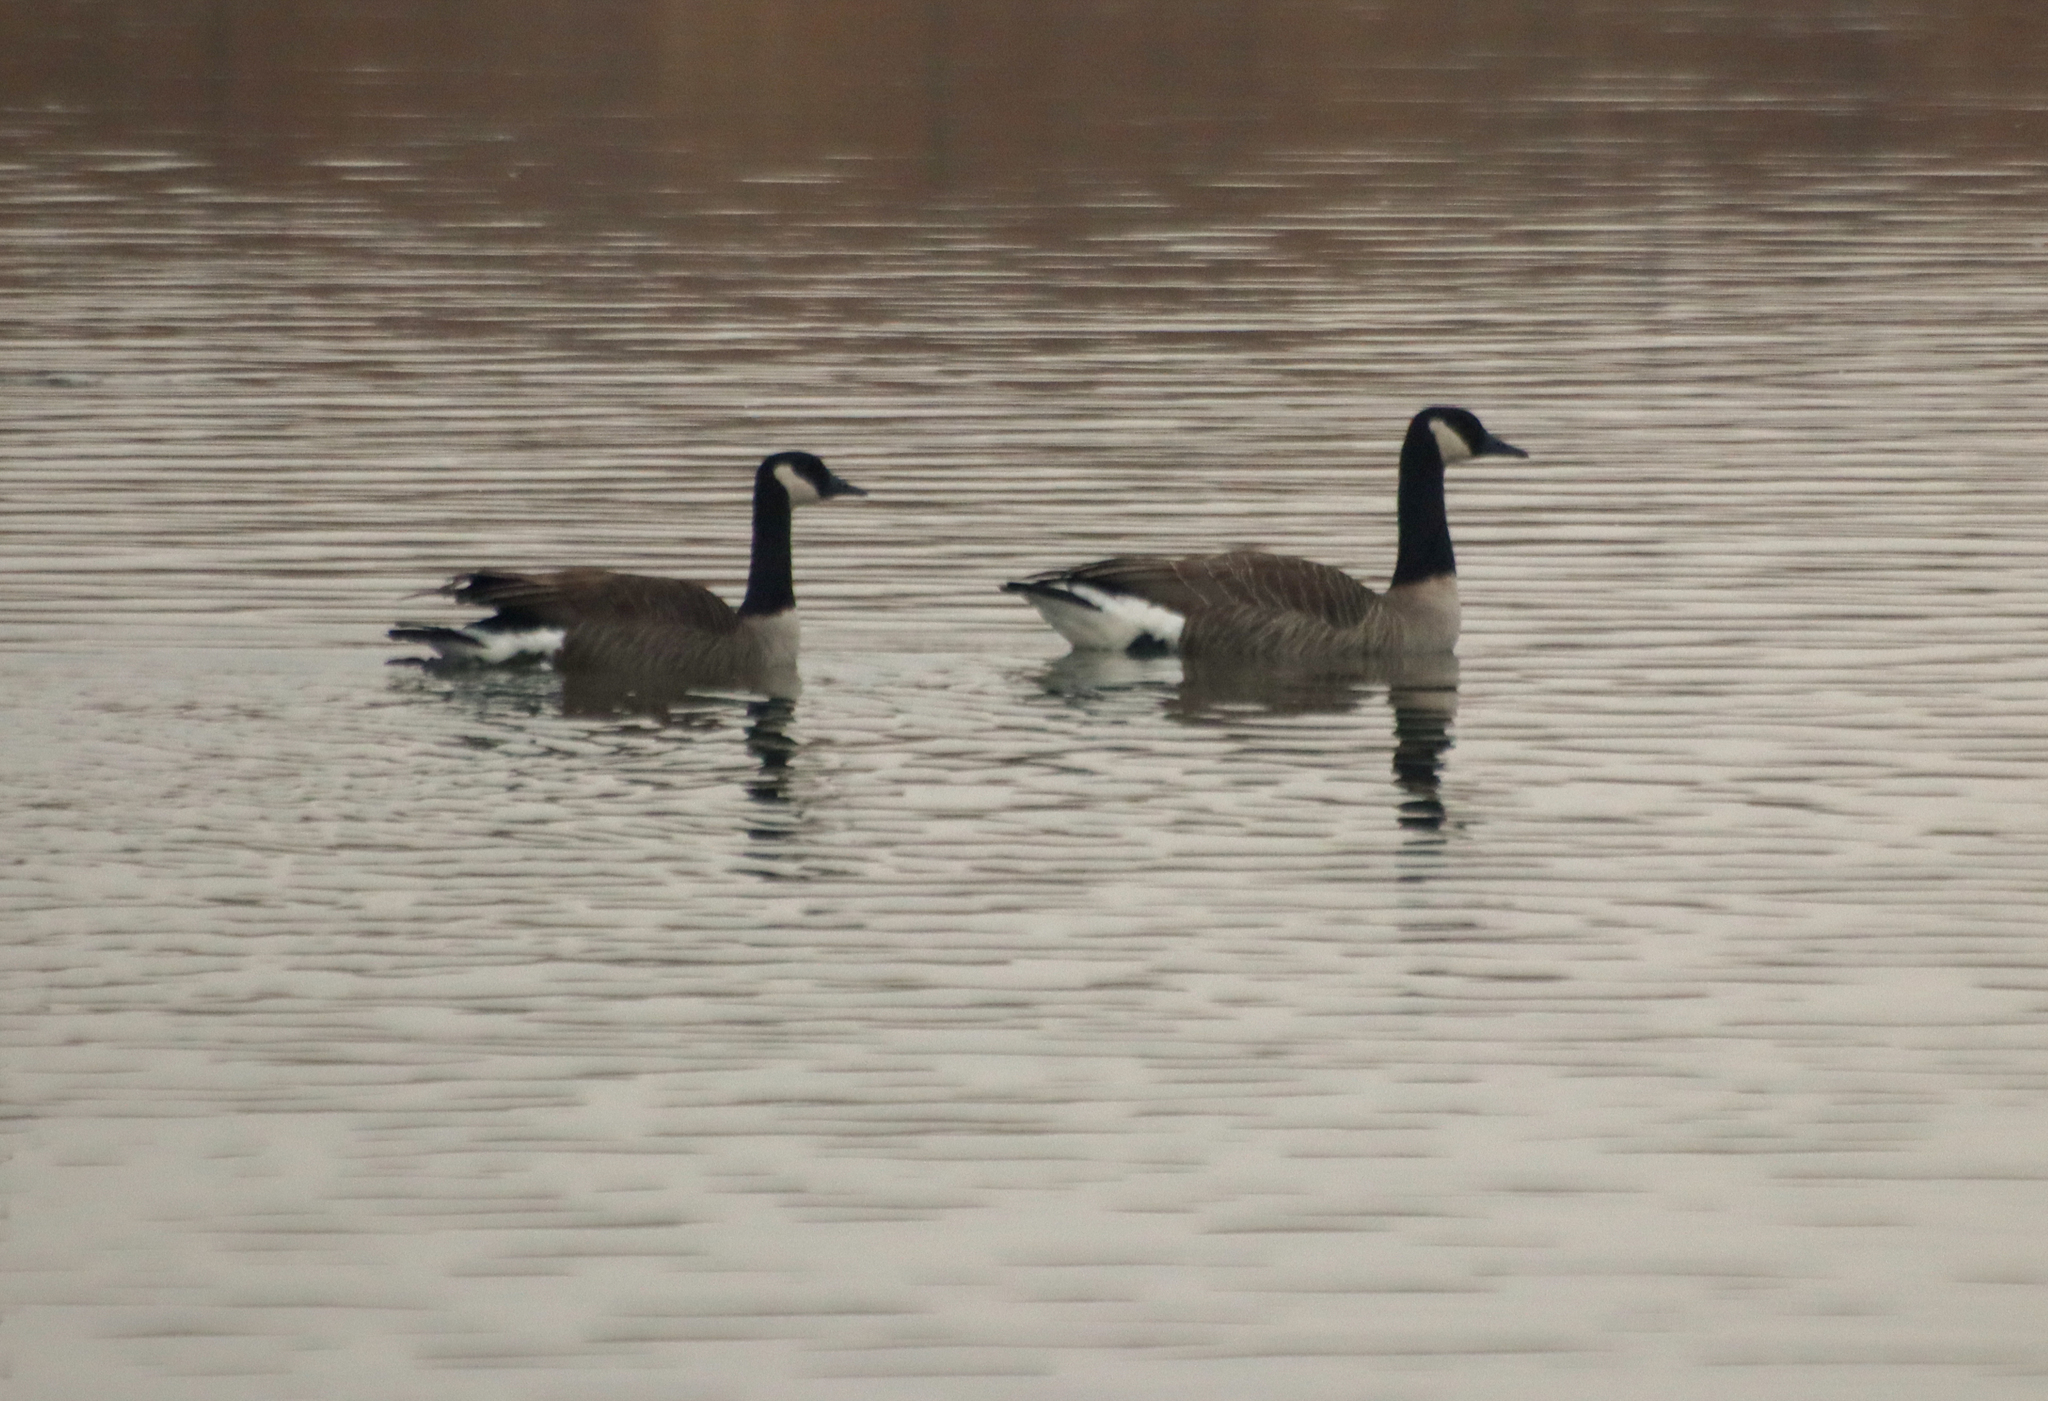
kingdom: Animalia
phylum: Chordata
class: Aves
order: Anseriformes
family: Anatidae
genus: Branta
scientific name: Branta canadensis
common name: Canada goose
